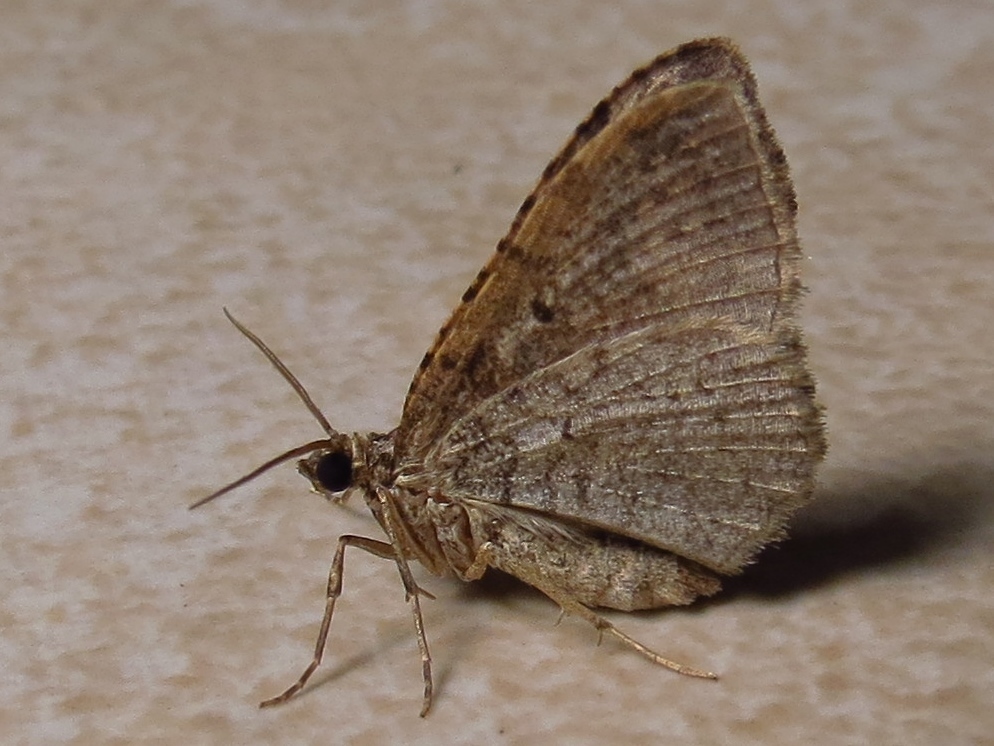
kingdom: Animalia
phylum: Arthropoda
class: Insecta
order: Lepidoptera
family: Geometridae
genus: Costaconvexa
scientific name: Costaconvexa centrostrigaria
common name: Bent-line carpet
